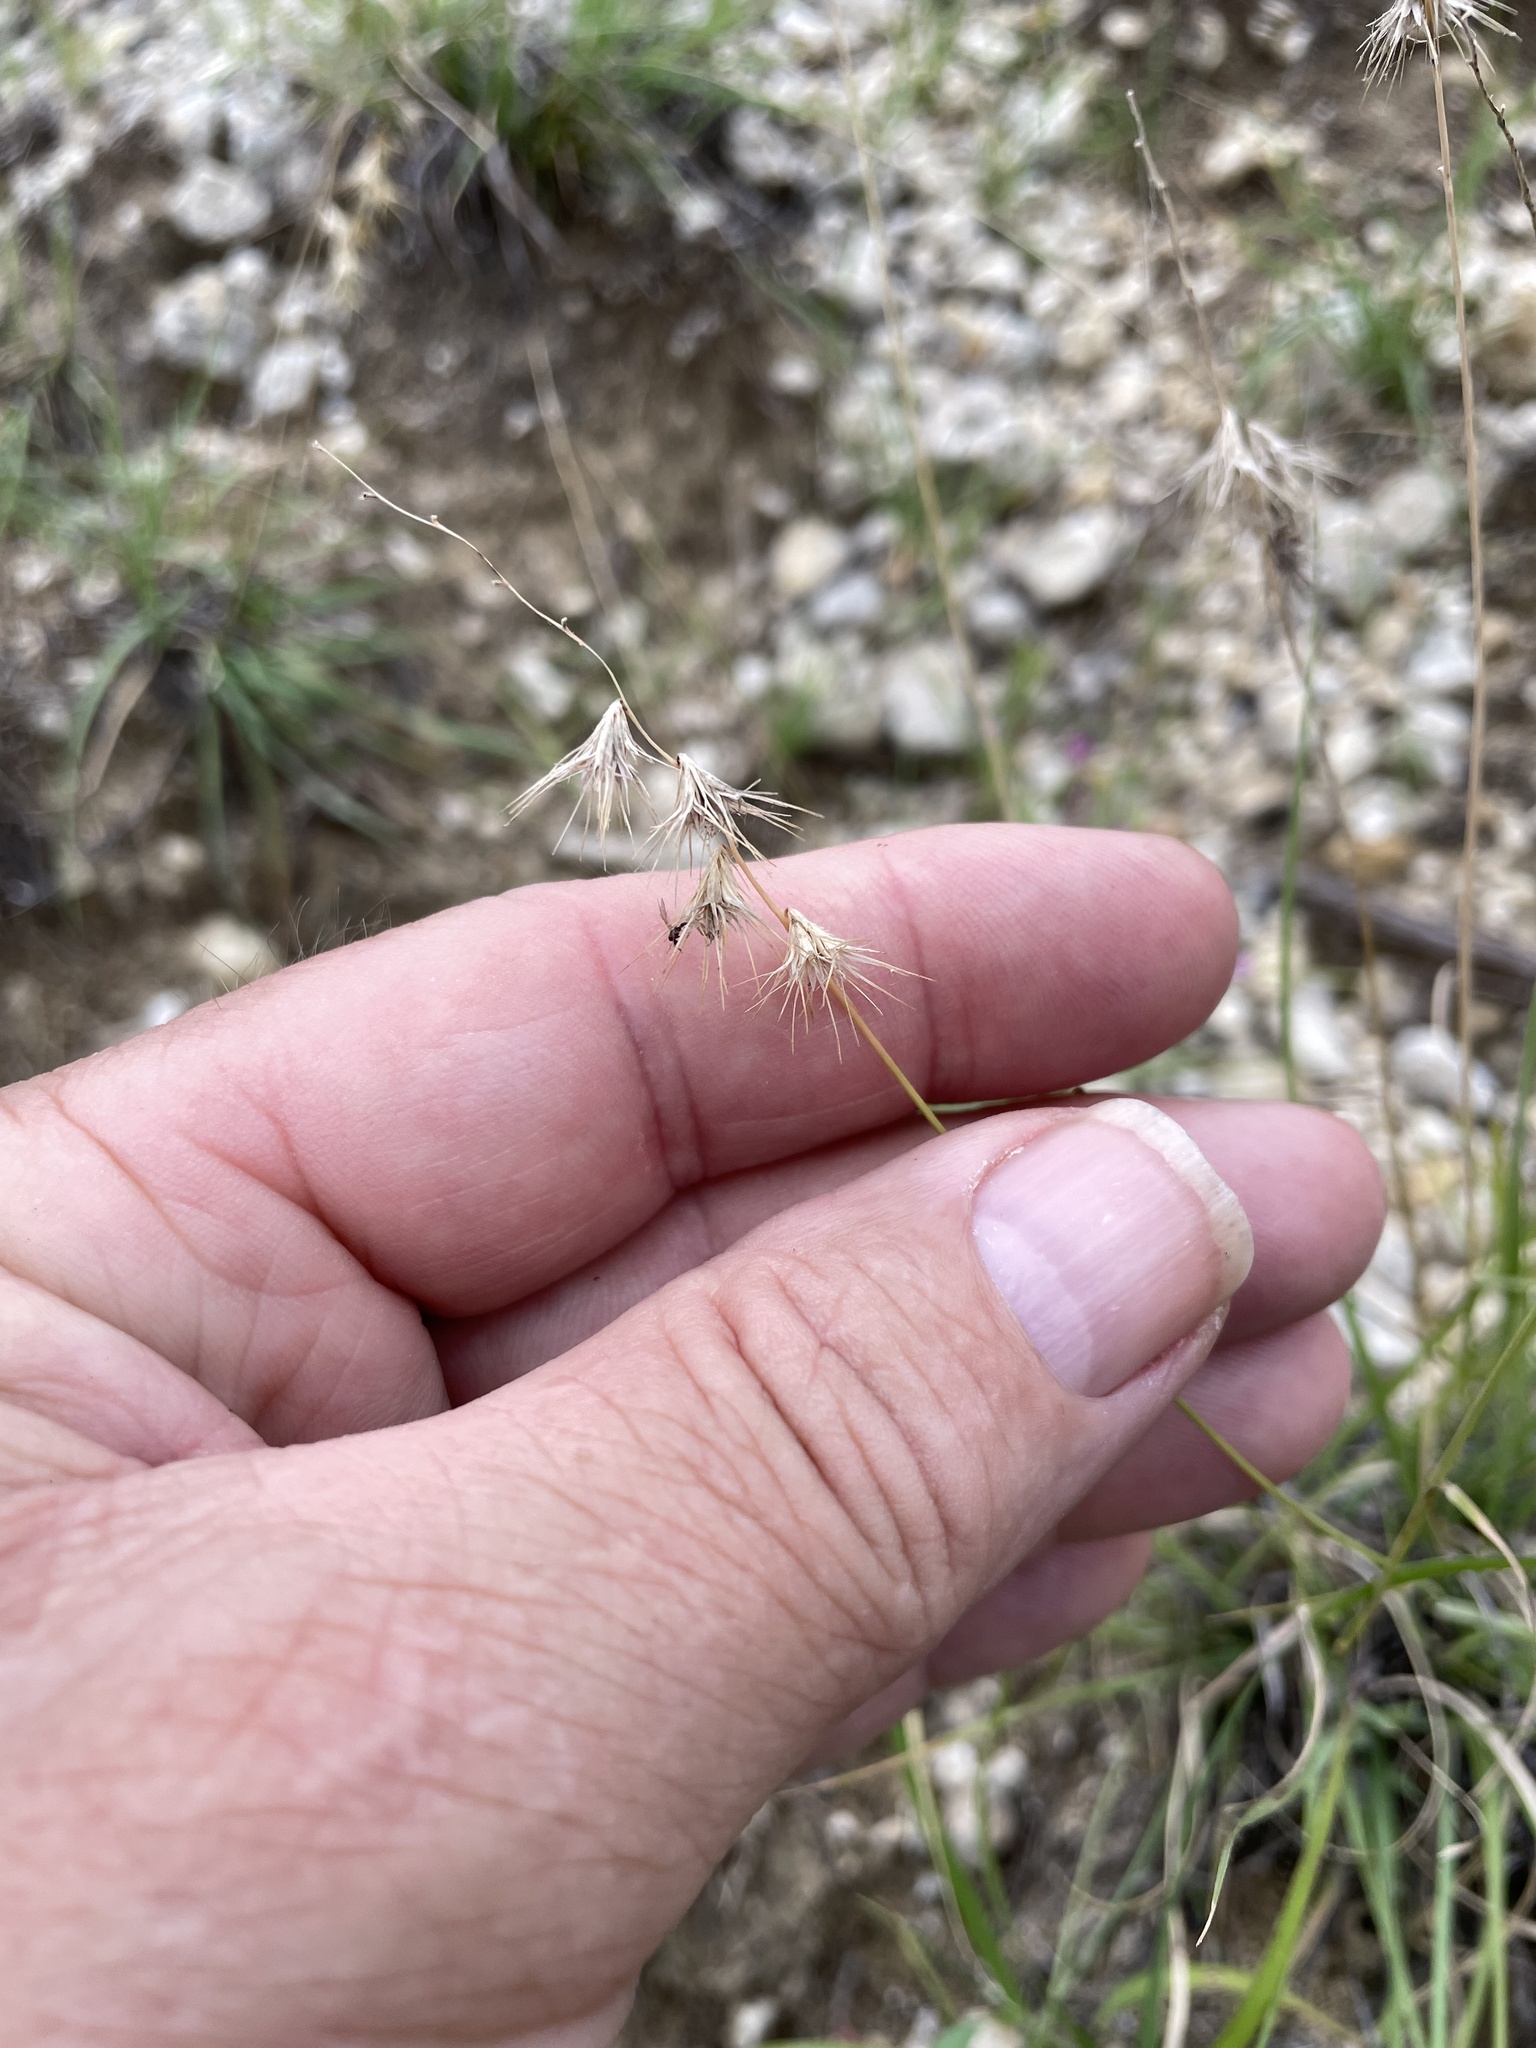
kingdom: Plantae
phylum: Tracheophyta
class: Liliopsida
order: Poales
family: Poaceae
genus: Bouteloua
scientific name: Bouteloua rigidiseta
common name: Texas grama
